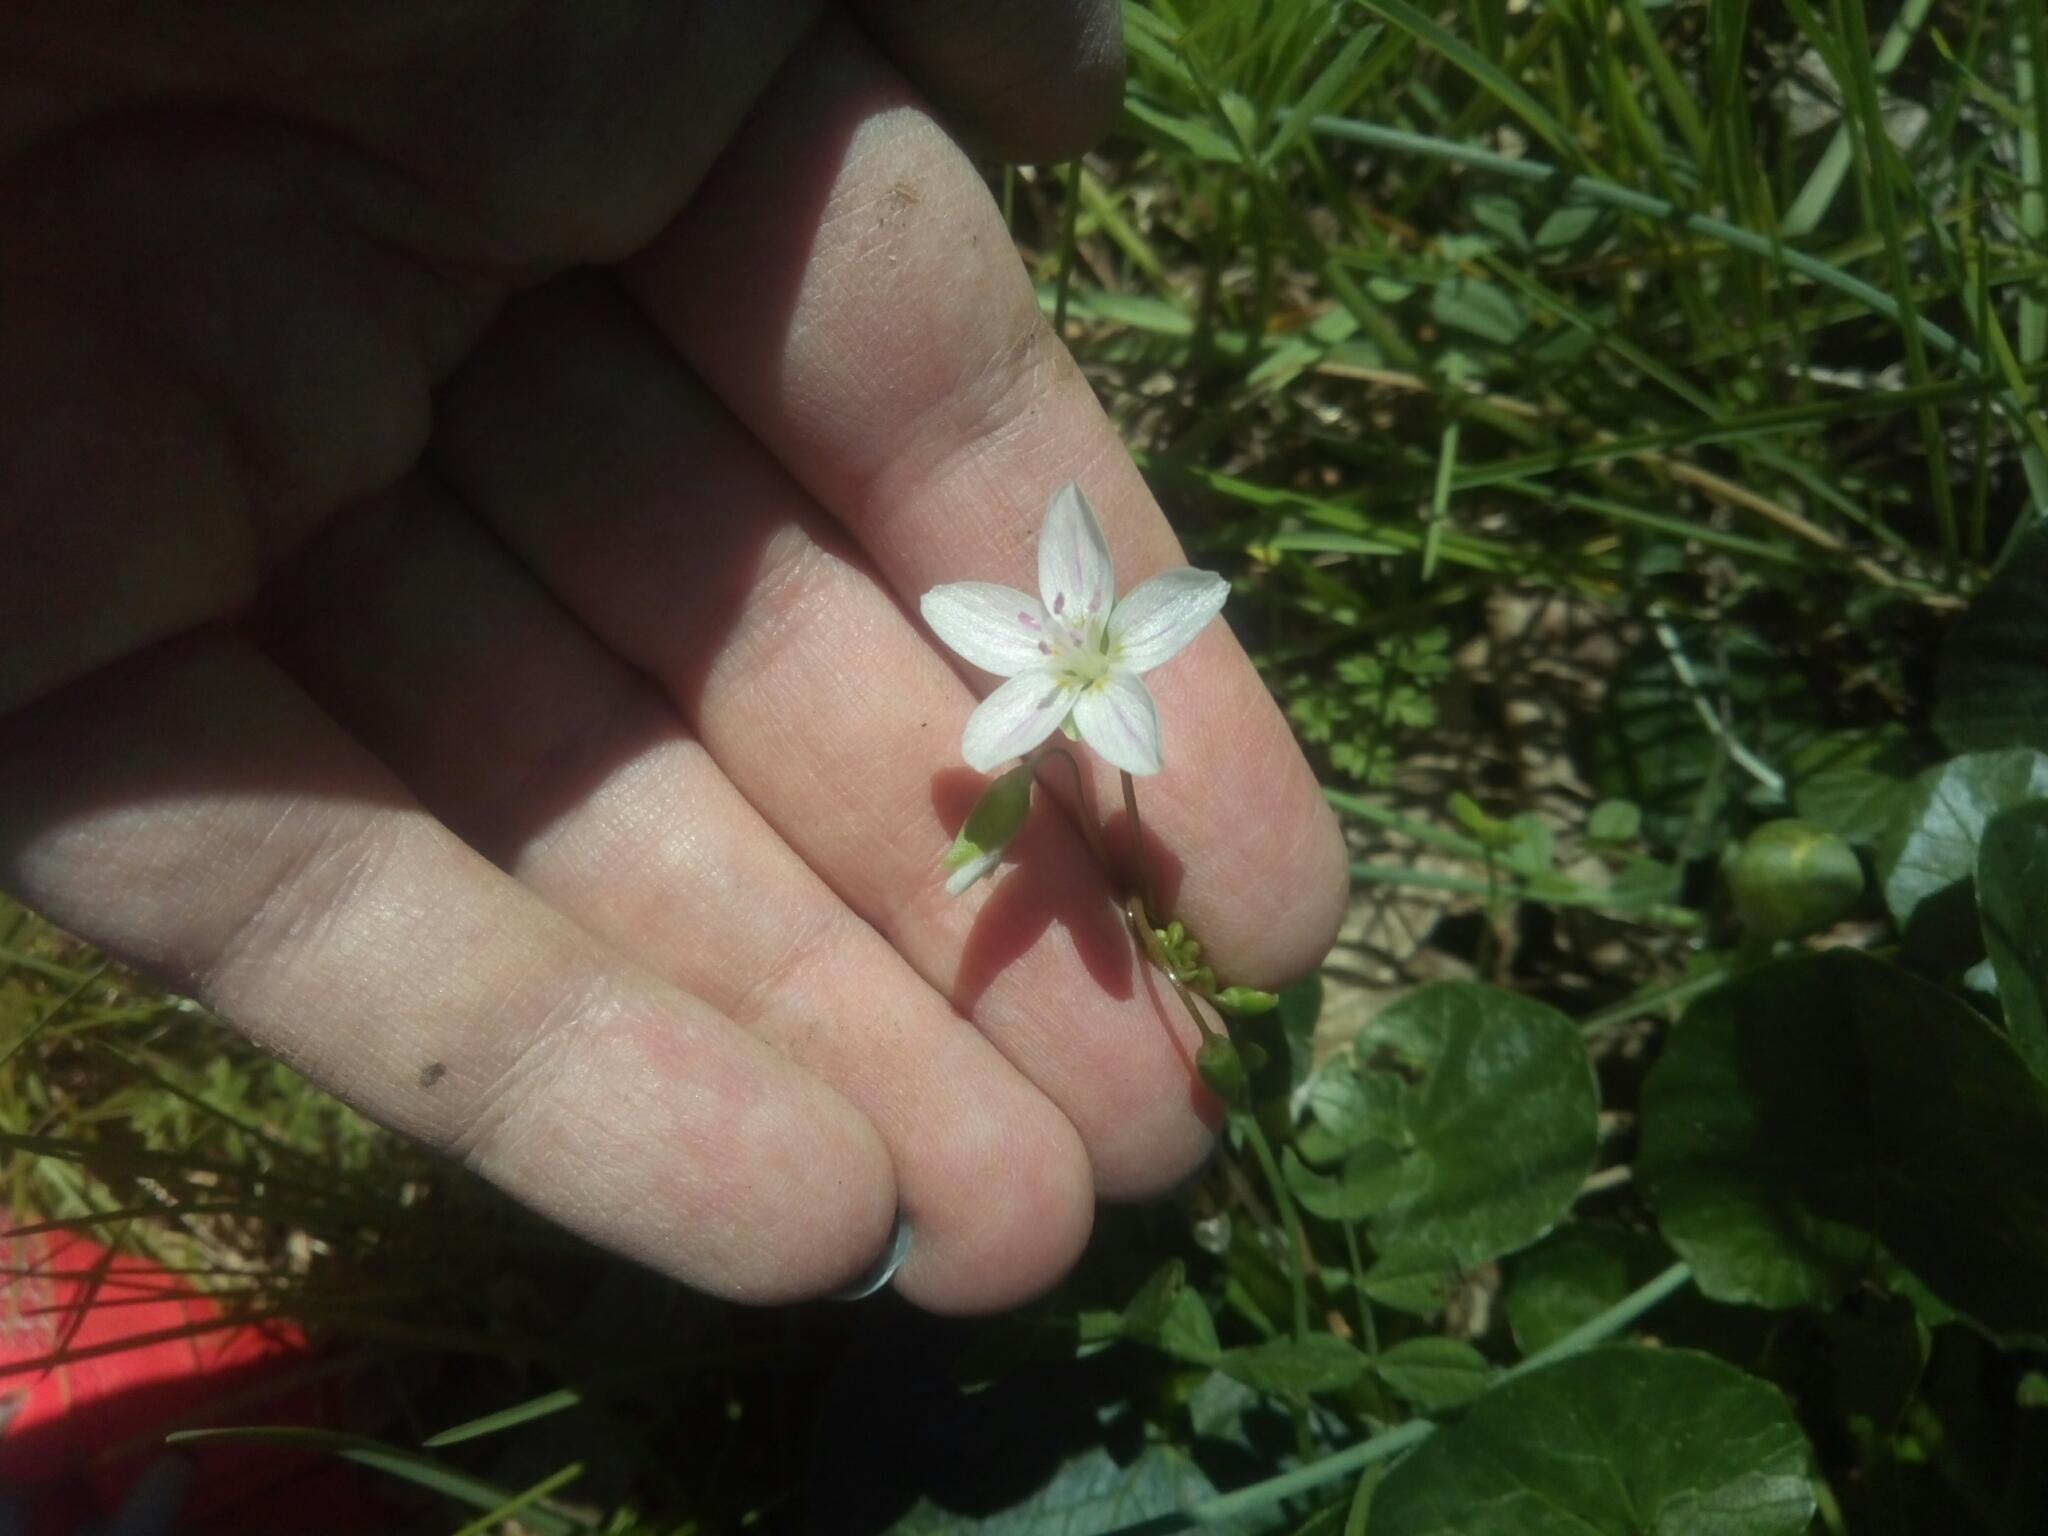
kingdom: Plantae
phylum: Tracheophyta
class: Magnoliopsida
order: Caryophyllales
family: Montiaceae
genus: Claytonia
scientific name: Claytonia virginica
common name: Virginia springbeauty
